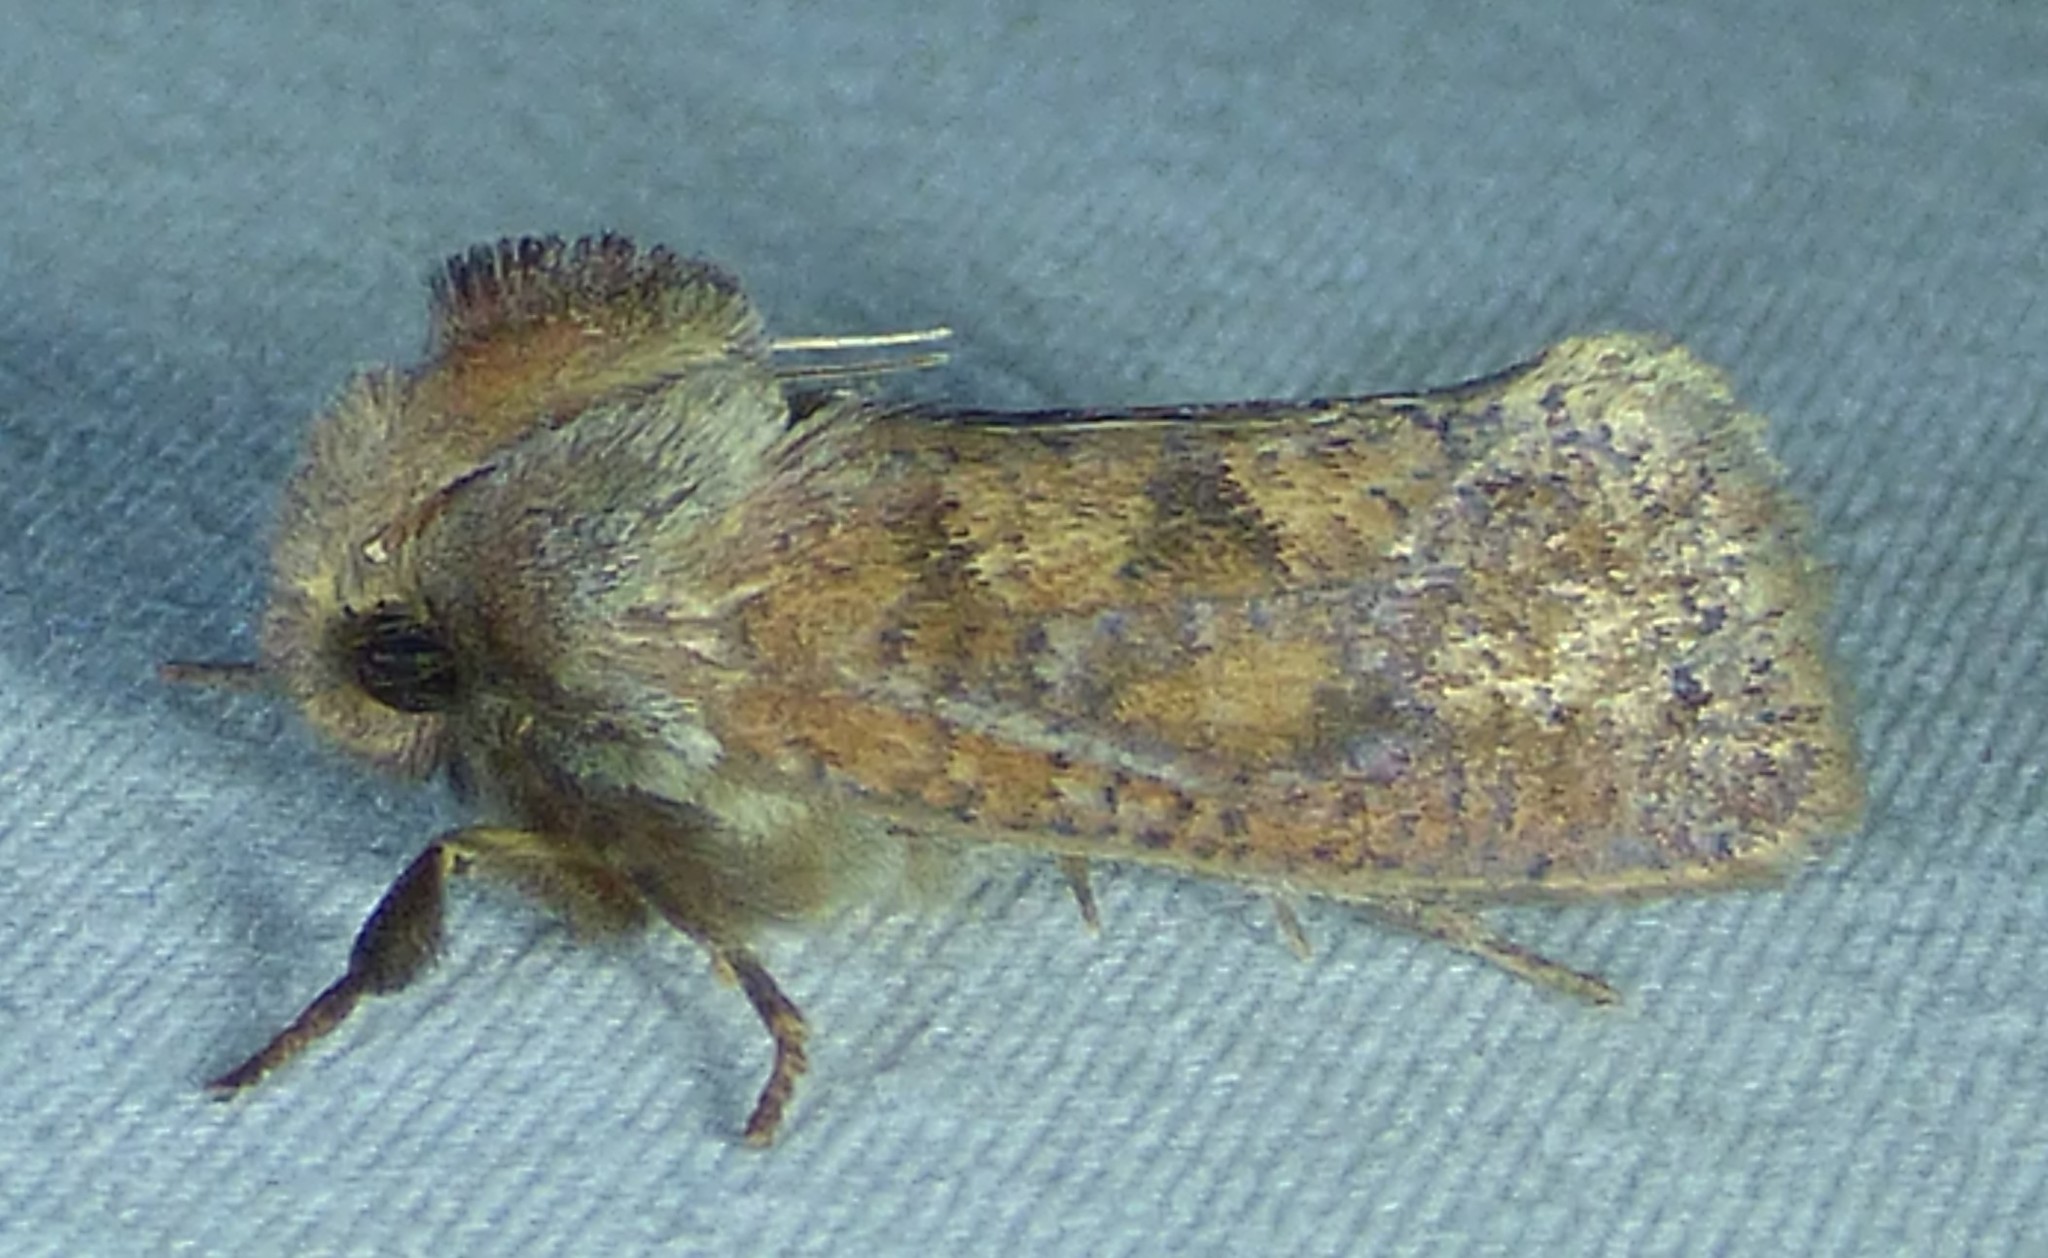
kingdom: Animalia
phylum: Arthropoda
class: Insecta
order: Lepidoptera
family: Tineidae
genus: Acrolophus
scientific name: Acrolophus plumifrontella
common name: Eastern grass tubeworm moth
